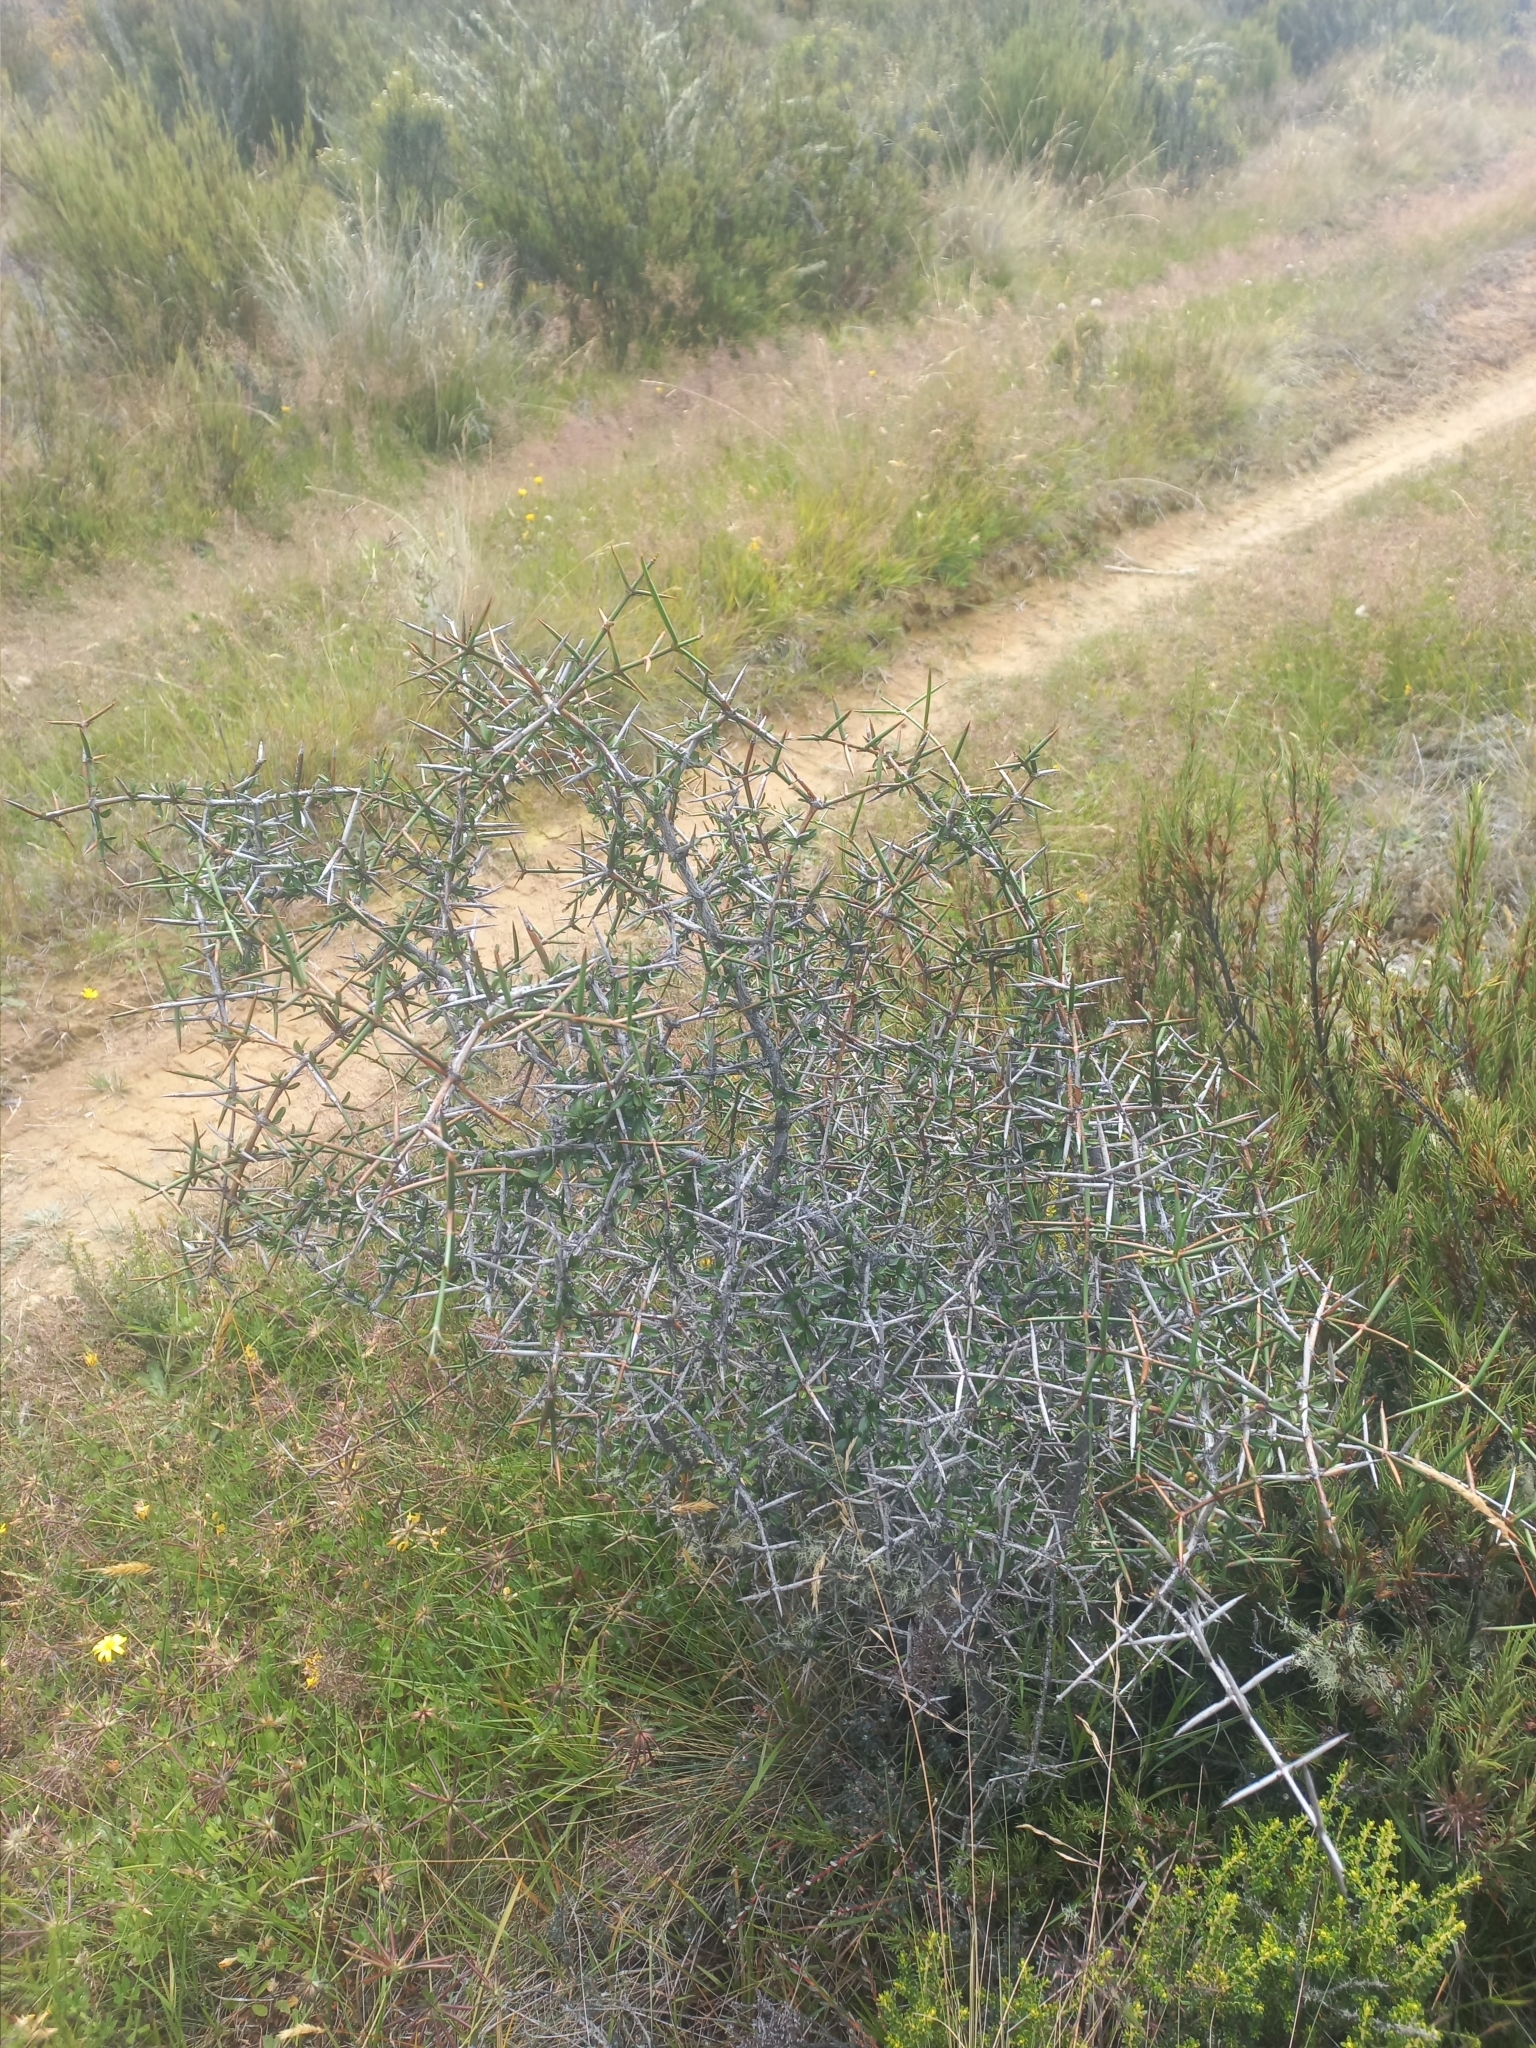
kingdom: Plantae
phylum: Tracheophyta
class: Magnoliopsida
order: Rosales
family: Rhamnaceae
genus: Discaria
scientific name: Discaria toumatou
